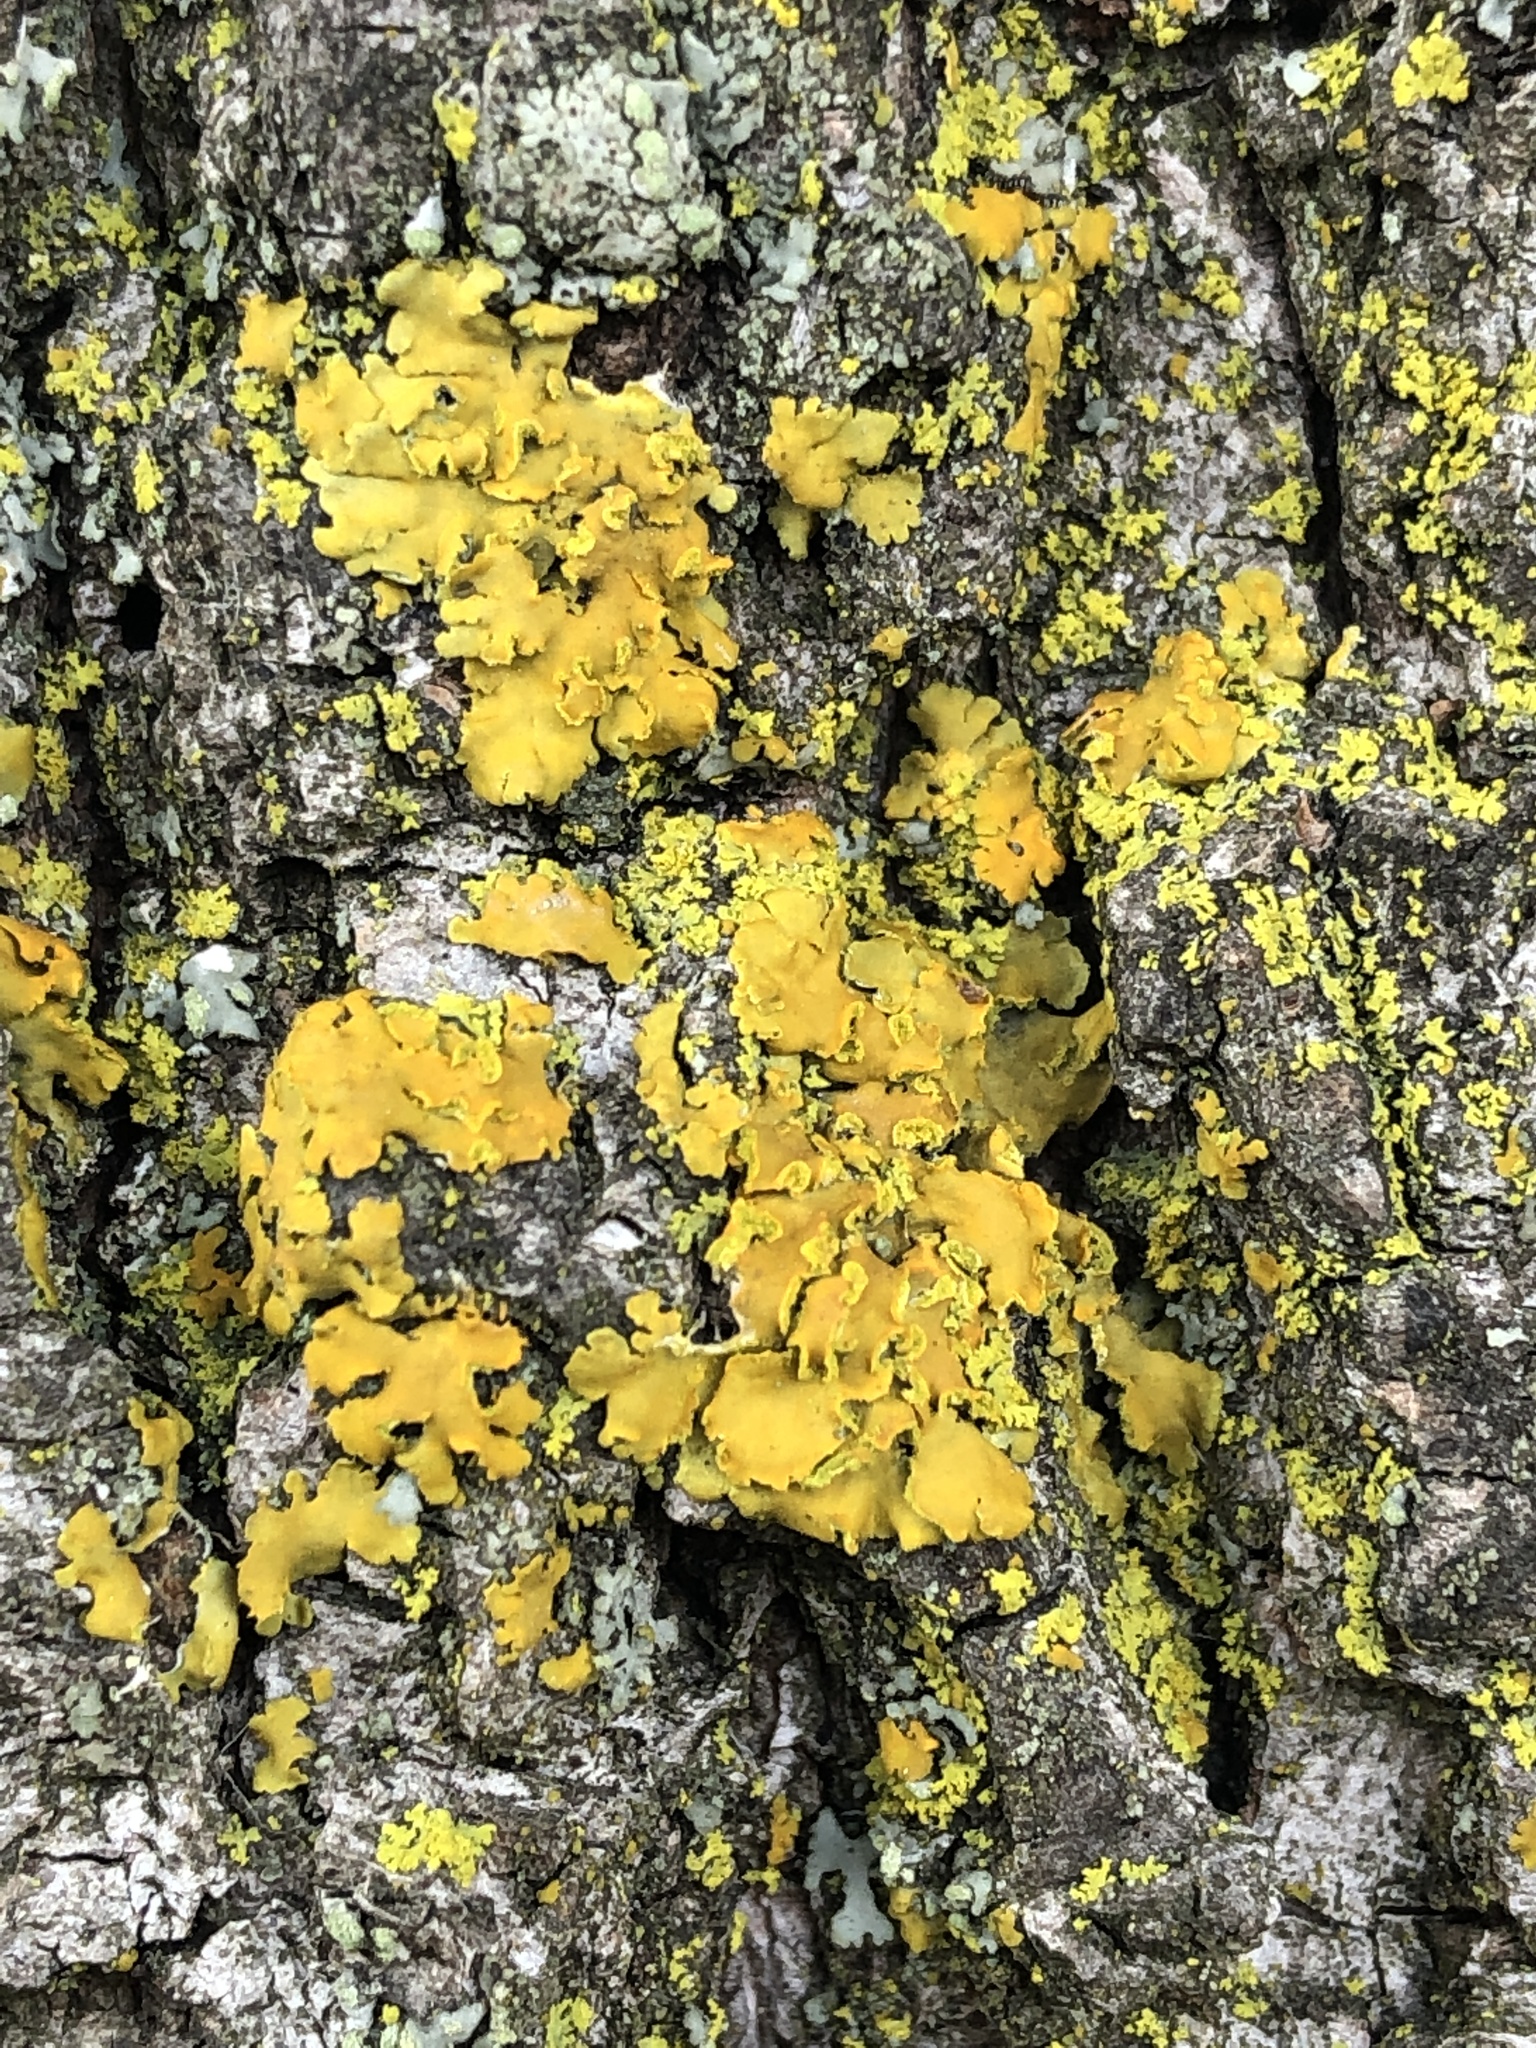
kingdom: Fungi
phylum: Ascomycota
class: Lecanoromycetes
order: Teloschistales
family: Teloschistaceae
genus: Oxneria
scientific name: Oxneria fallax
